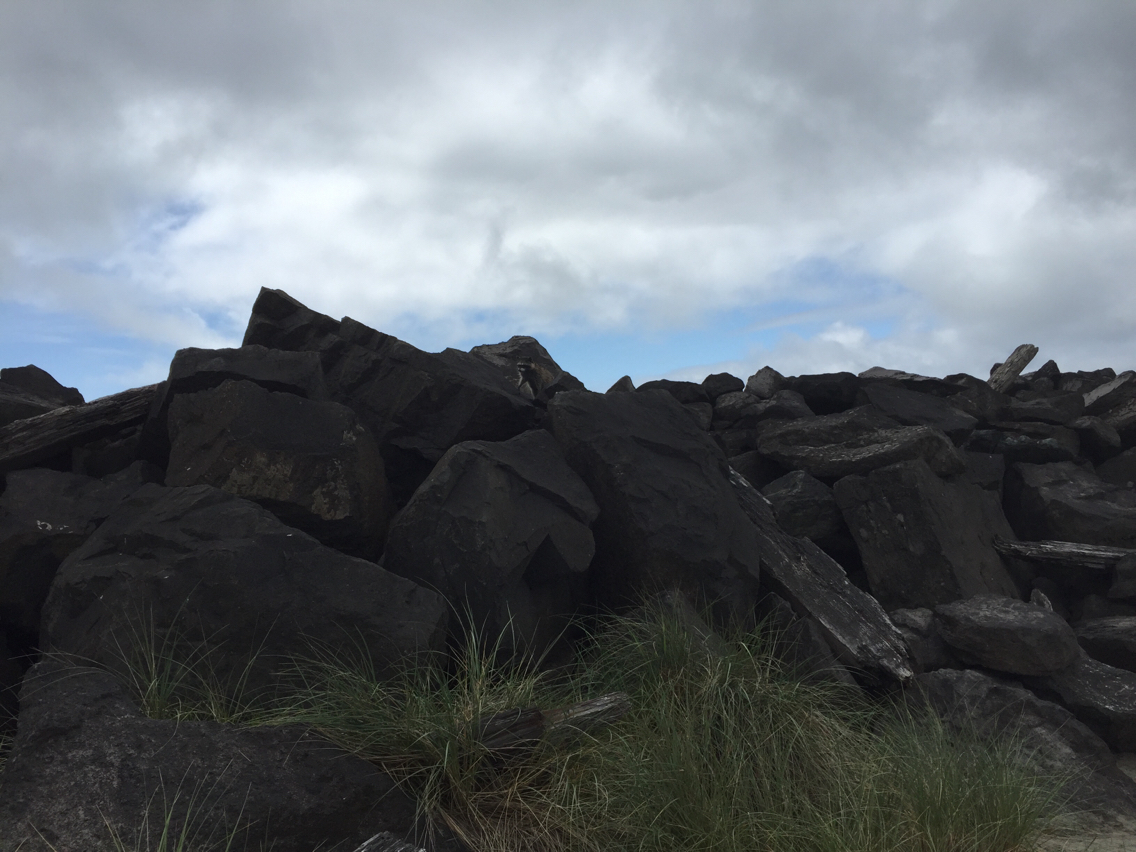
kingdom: Animalia
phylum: Chordata
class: Mammalia
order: Carnivora
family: Procyonidae
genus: Procyon
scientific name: Procyon lotor
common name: Raccoon
